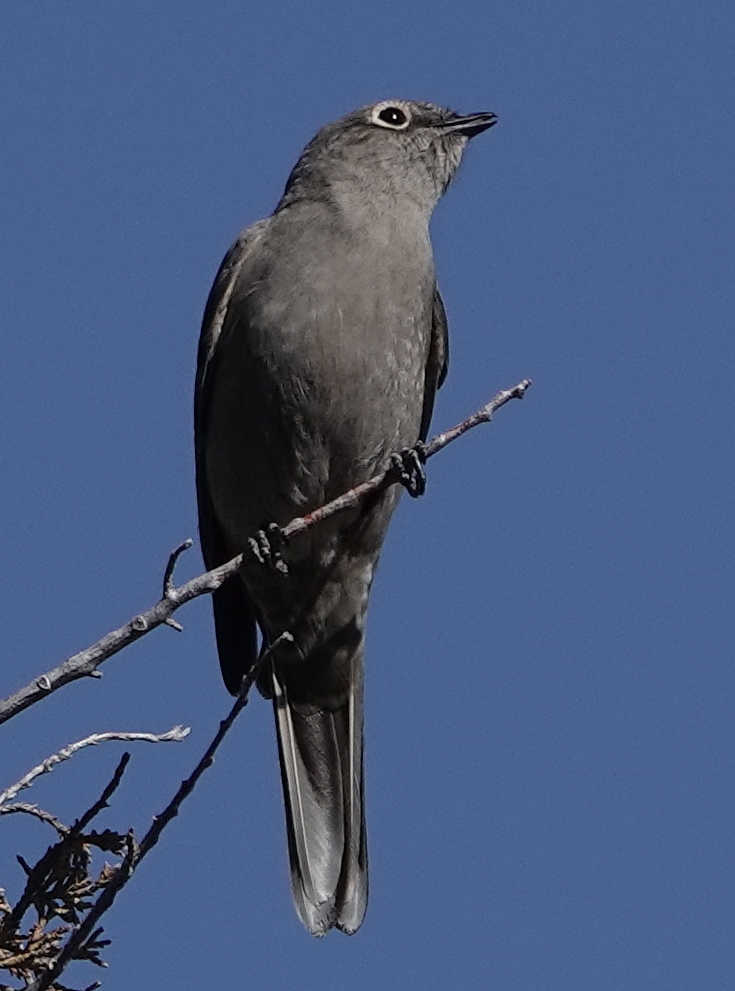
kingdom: Animalia
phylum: Chordata
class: Aves
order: Passeriformes
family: Turdidae
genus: Myadestes
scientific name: Myadestes townsendi
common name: Townsend's solitaire
